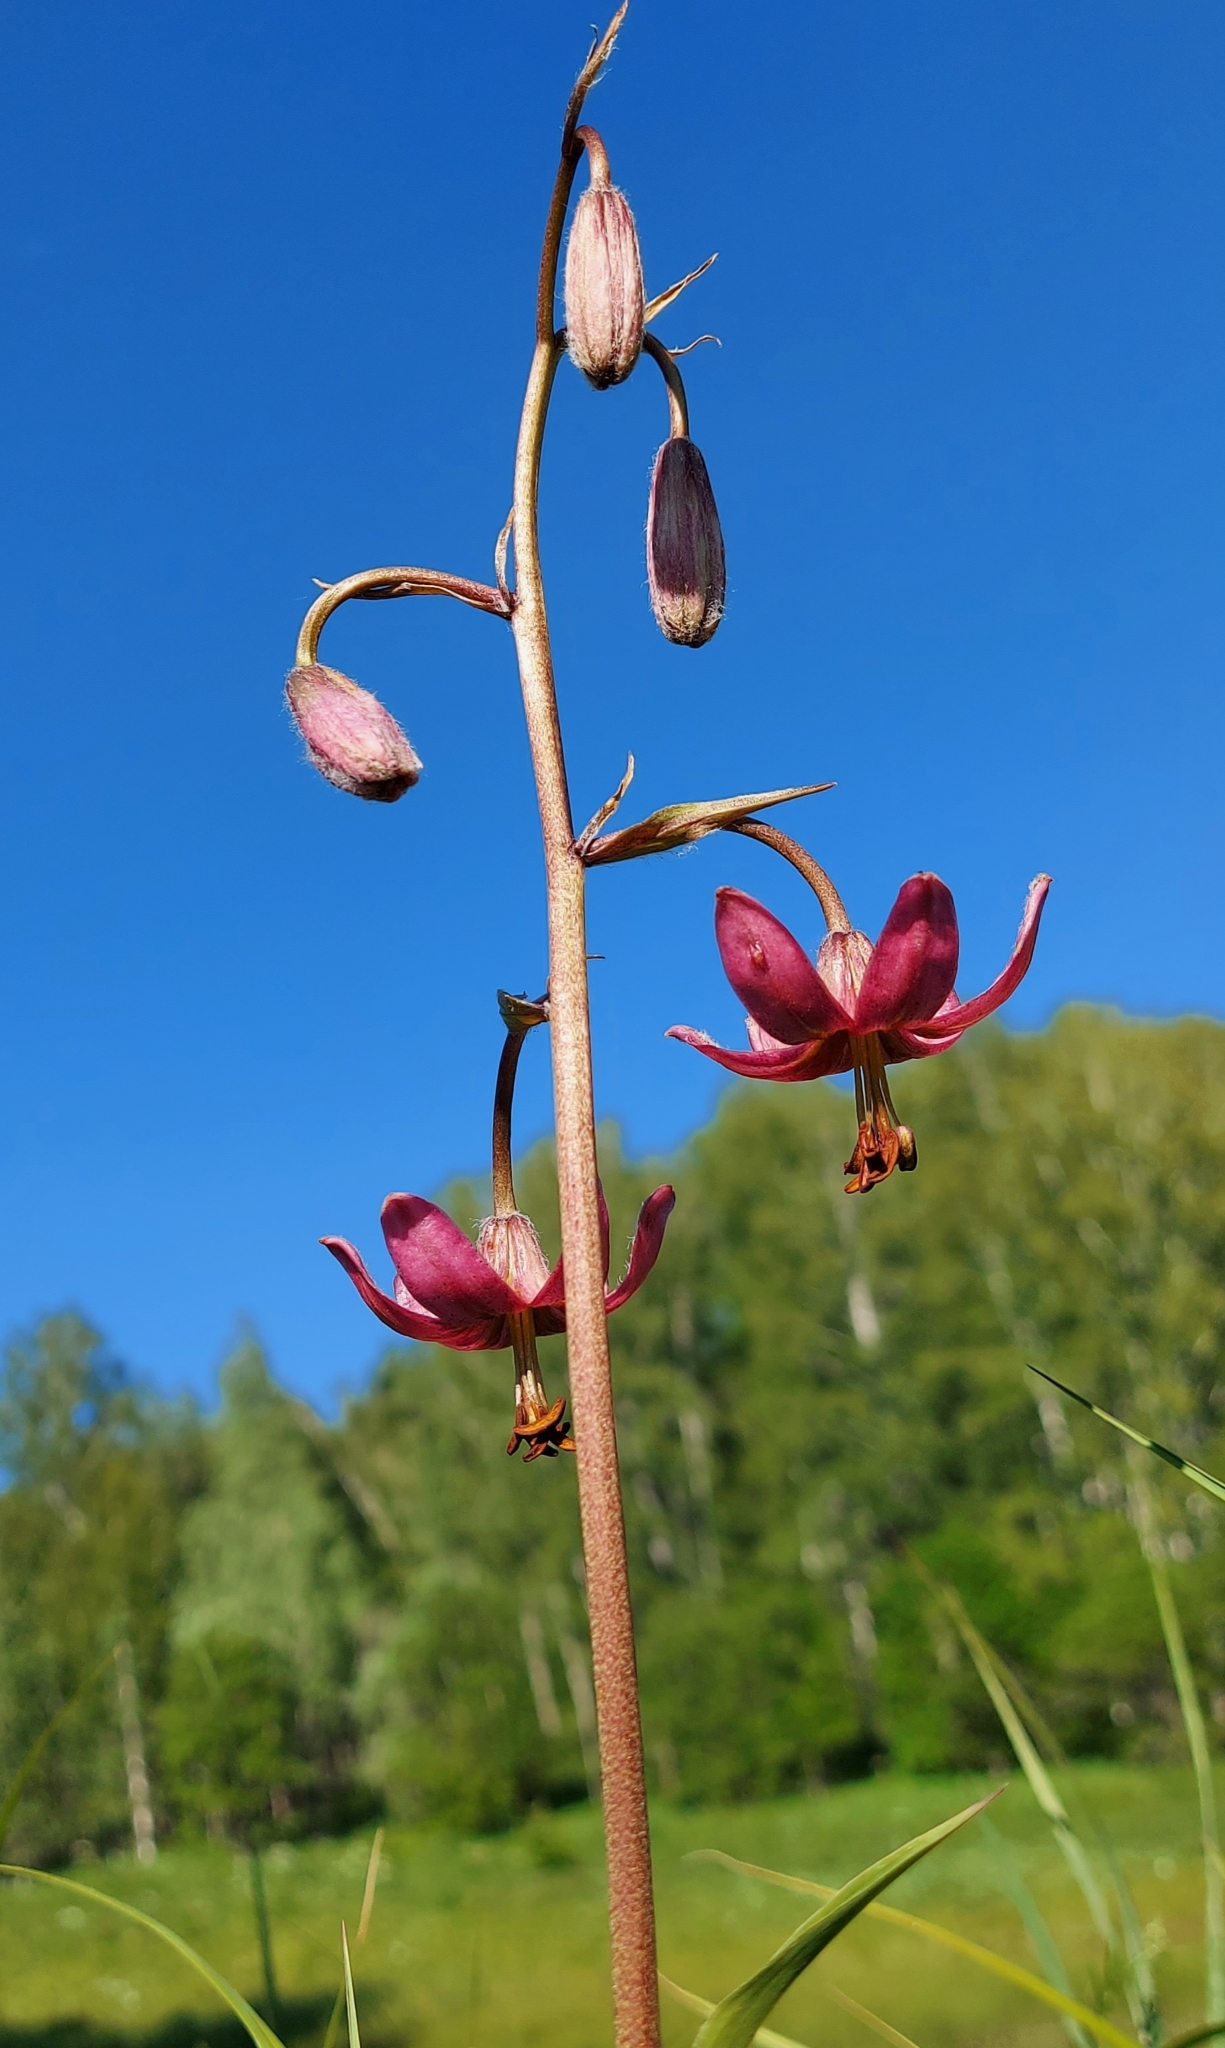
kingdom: Plantae
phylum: Tracheophyta
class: Liliopsida
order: Liliales
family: Liliaceae
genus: Lilium
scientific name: Lilium martagon
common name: Martagon lily
